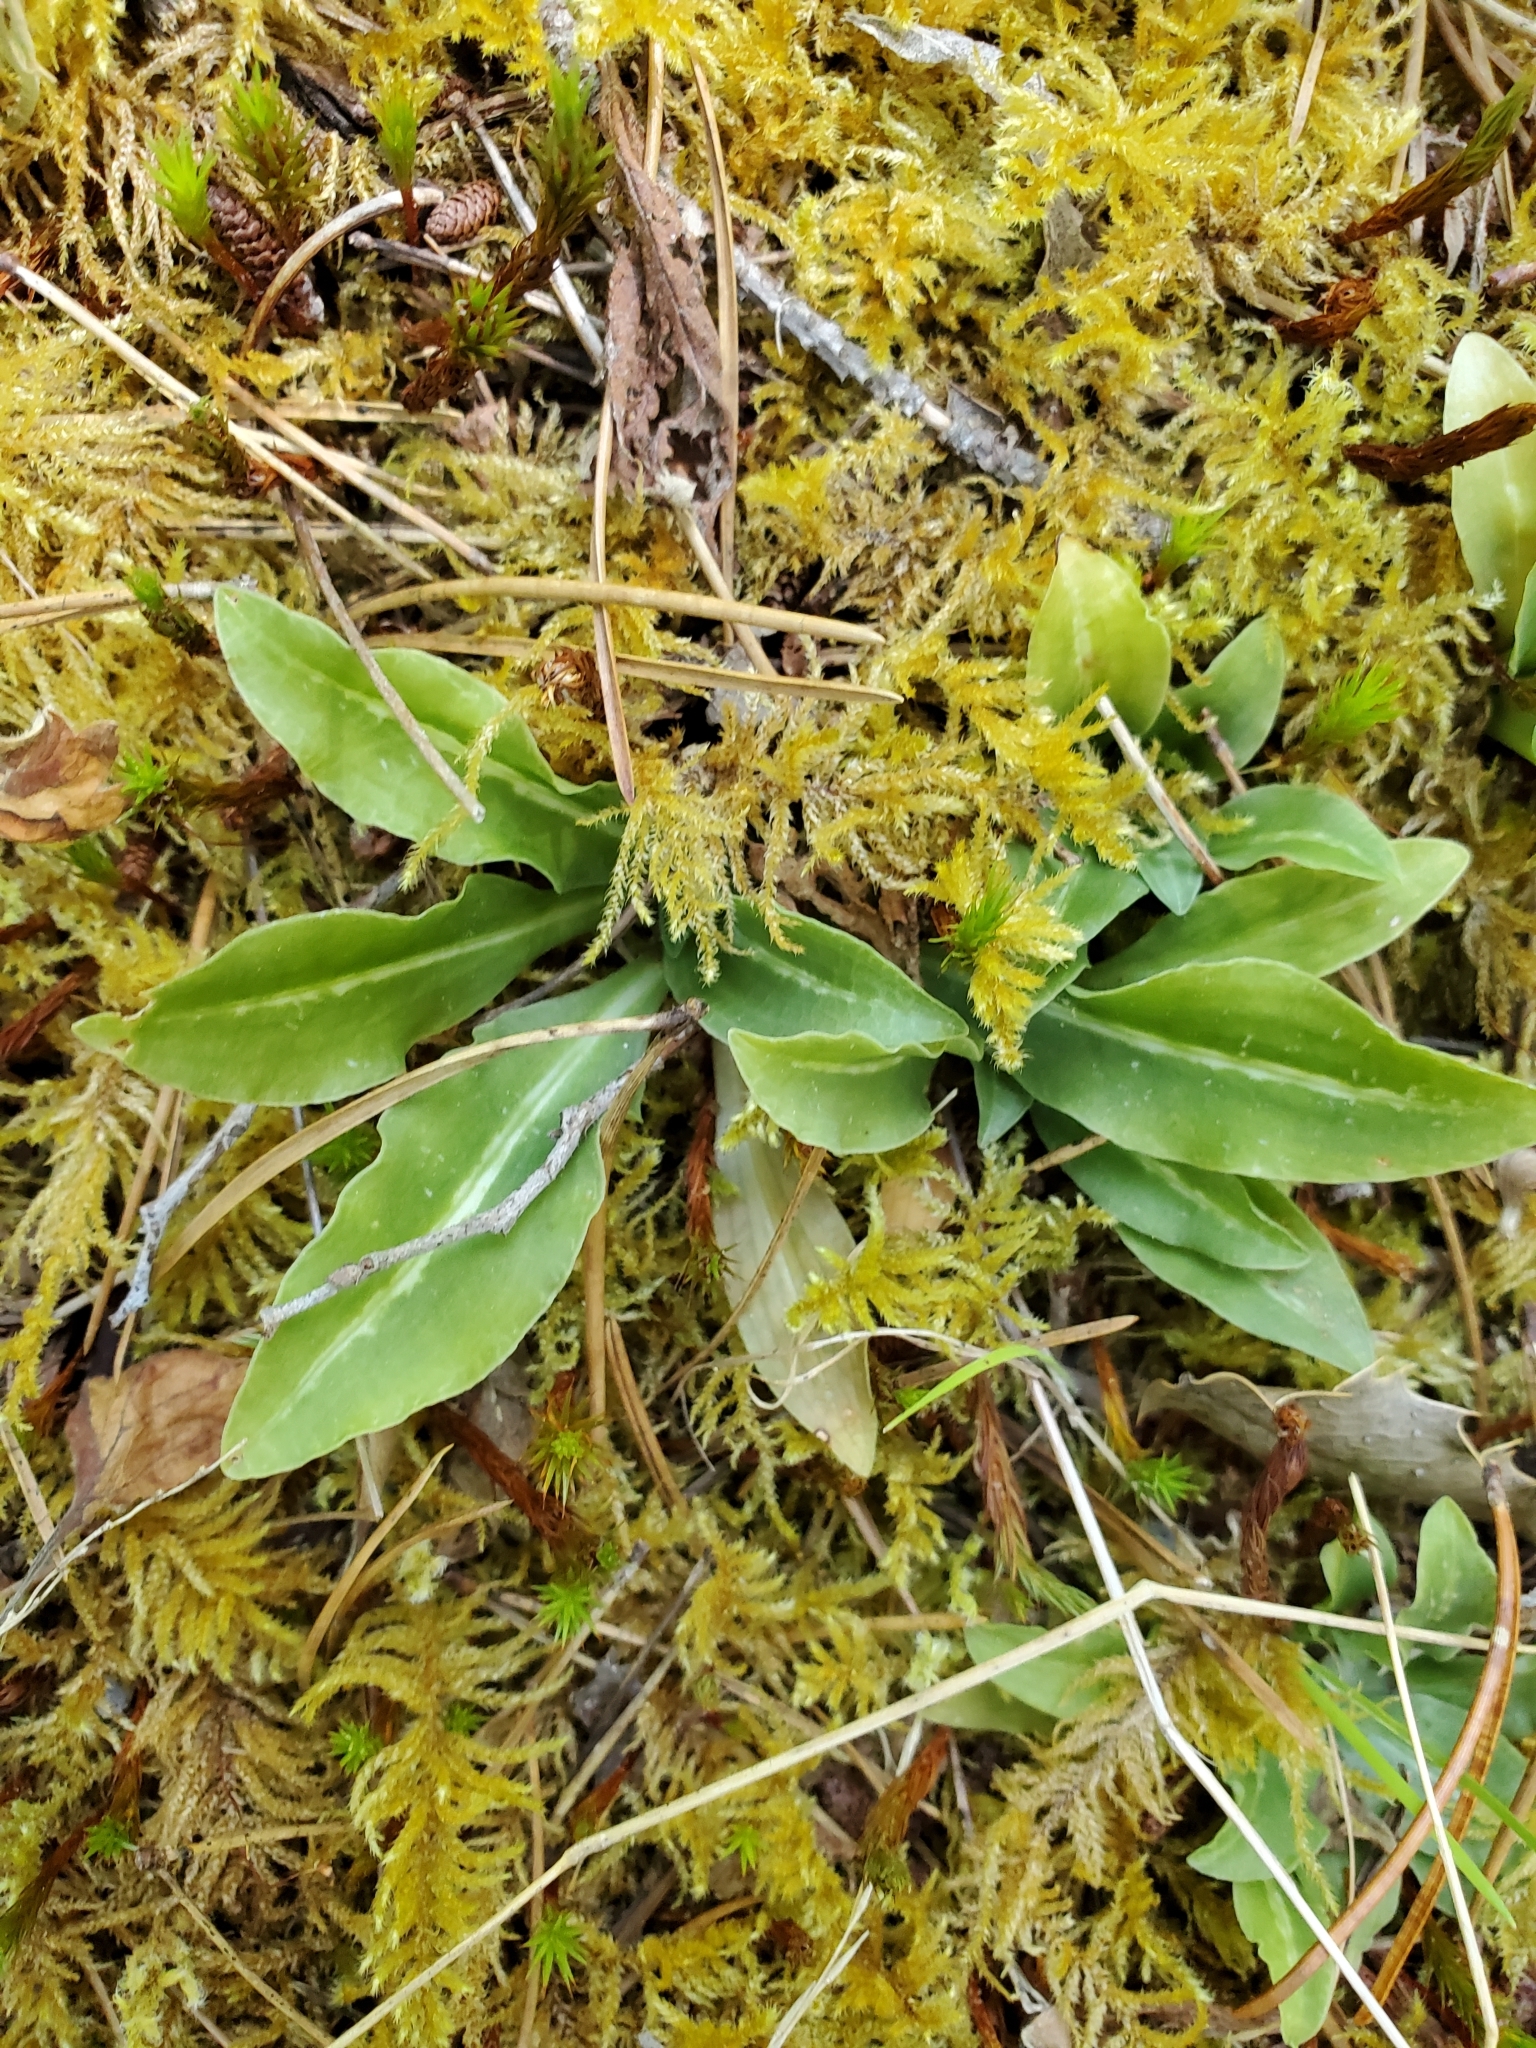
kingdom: Plantae
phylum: Tracheophyta
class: Liliopsida
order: Asparagales
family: Orchidaceae
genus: Goodyera
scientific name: Goodyera oblongifolia
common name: Giant rattlesnake-plantain
